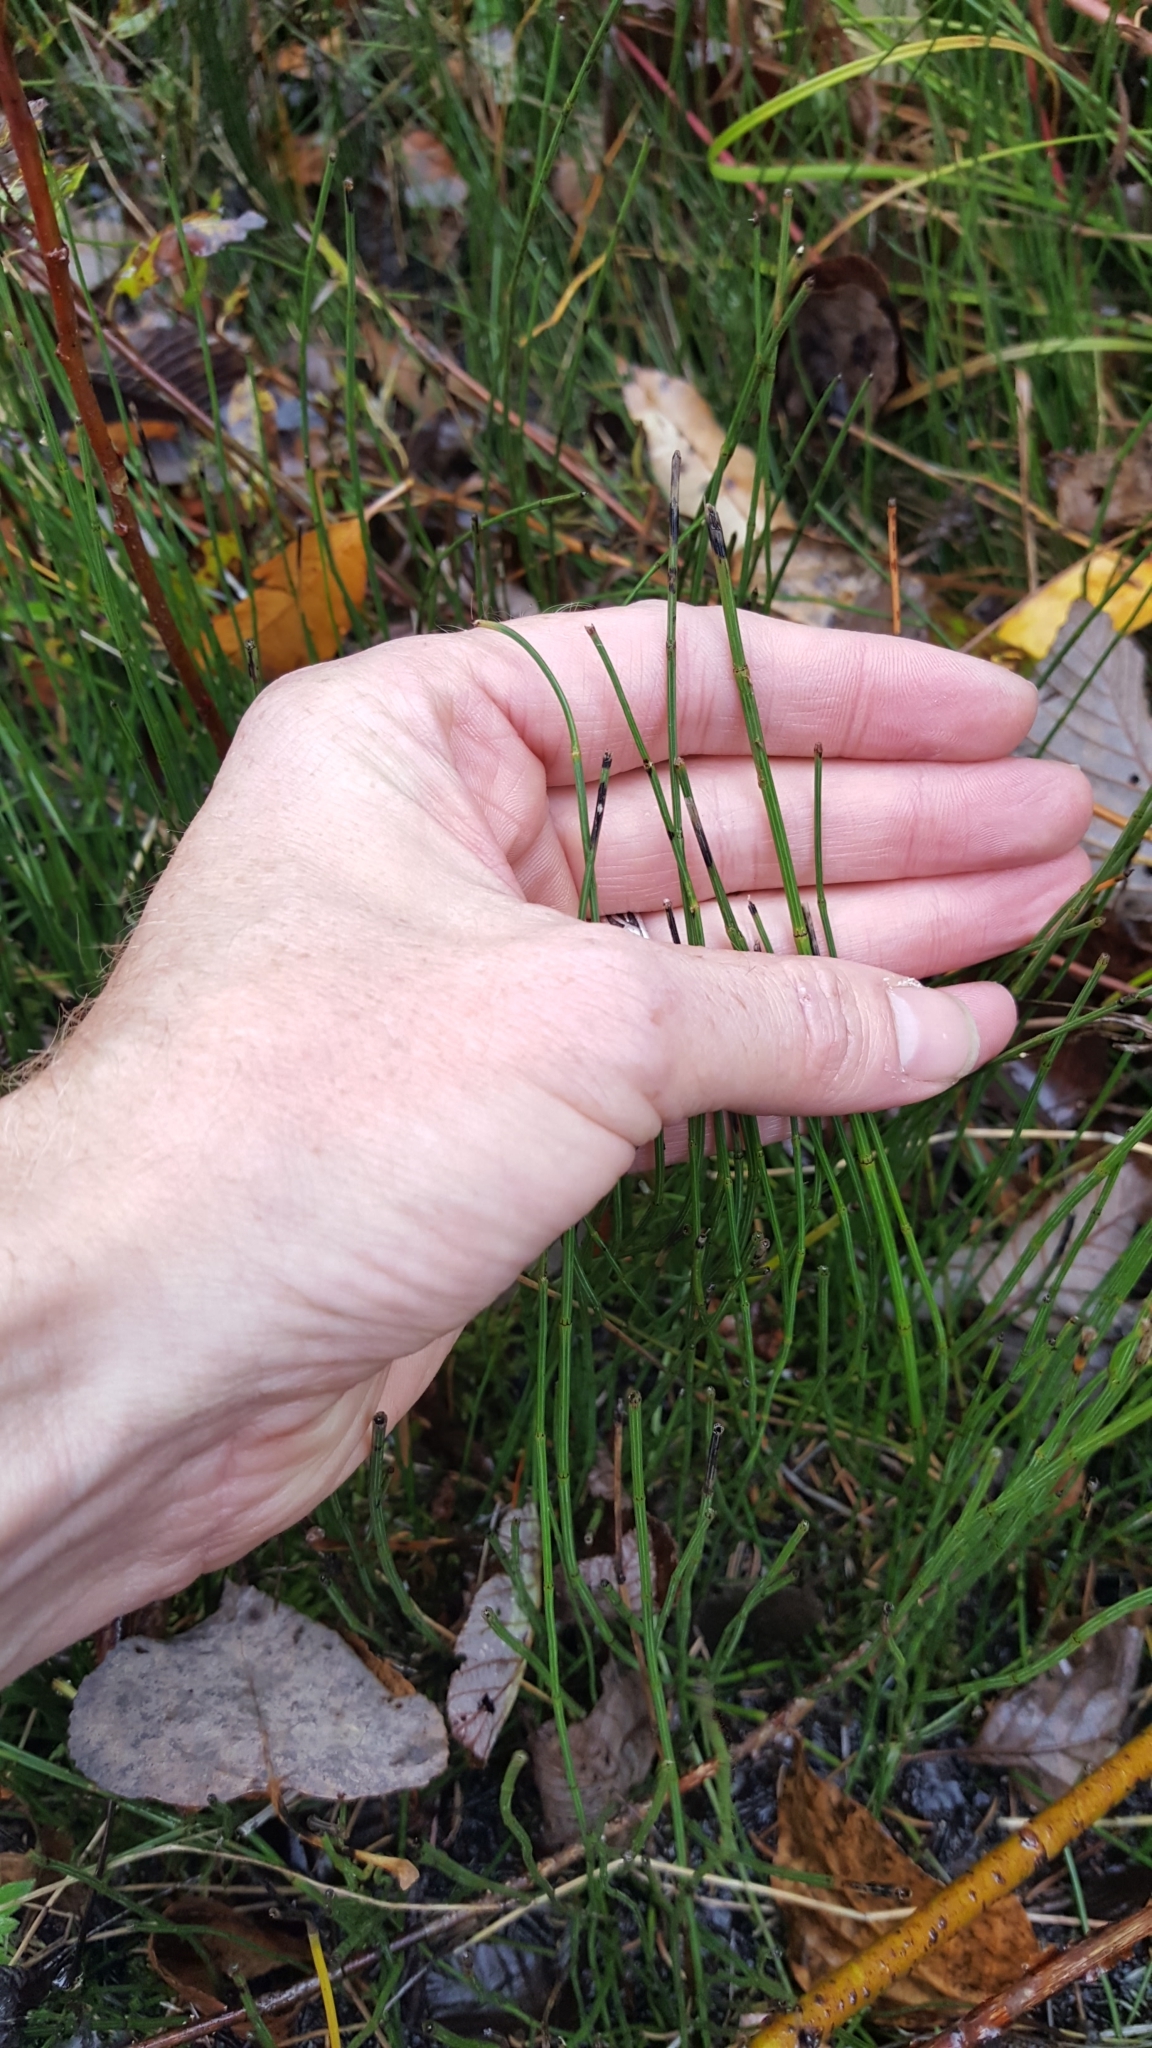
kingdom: Plantae
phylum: Tracheophyta
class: Polypodiopsida
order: Equisetales
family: Equisetaceae
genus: Equisetum
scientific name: Equisetum variegatum
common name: Variegated horsetail
